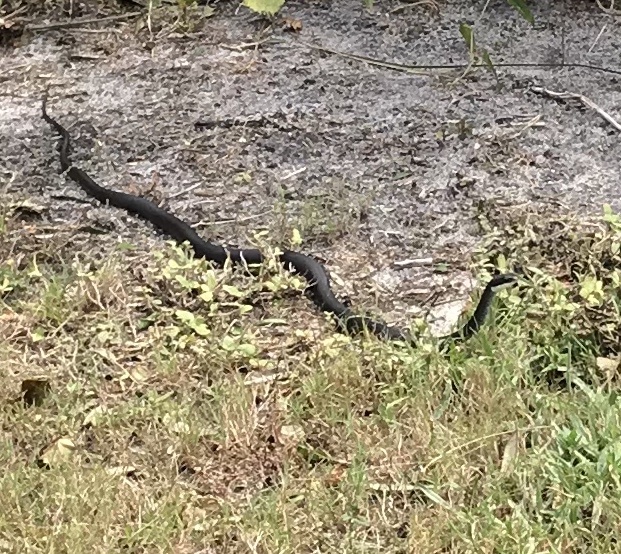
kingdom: Animalia
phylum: Chordata
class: Squamata
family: Colubridae
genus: Coluber
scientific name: Coluber constrictor
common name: Eastern racer
